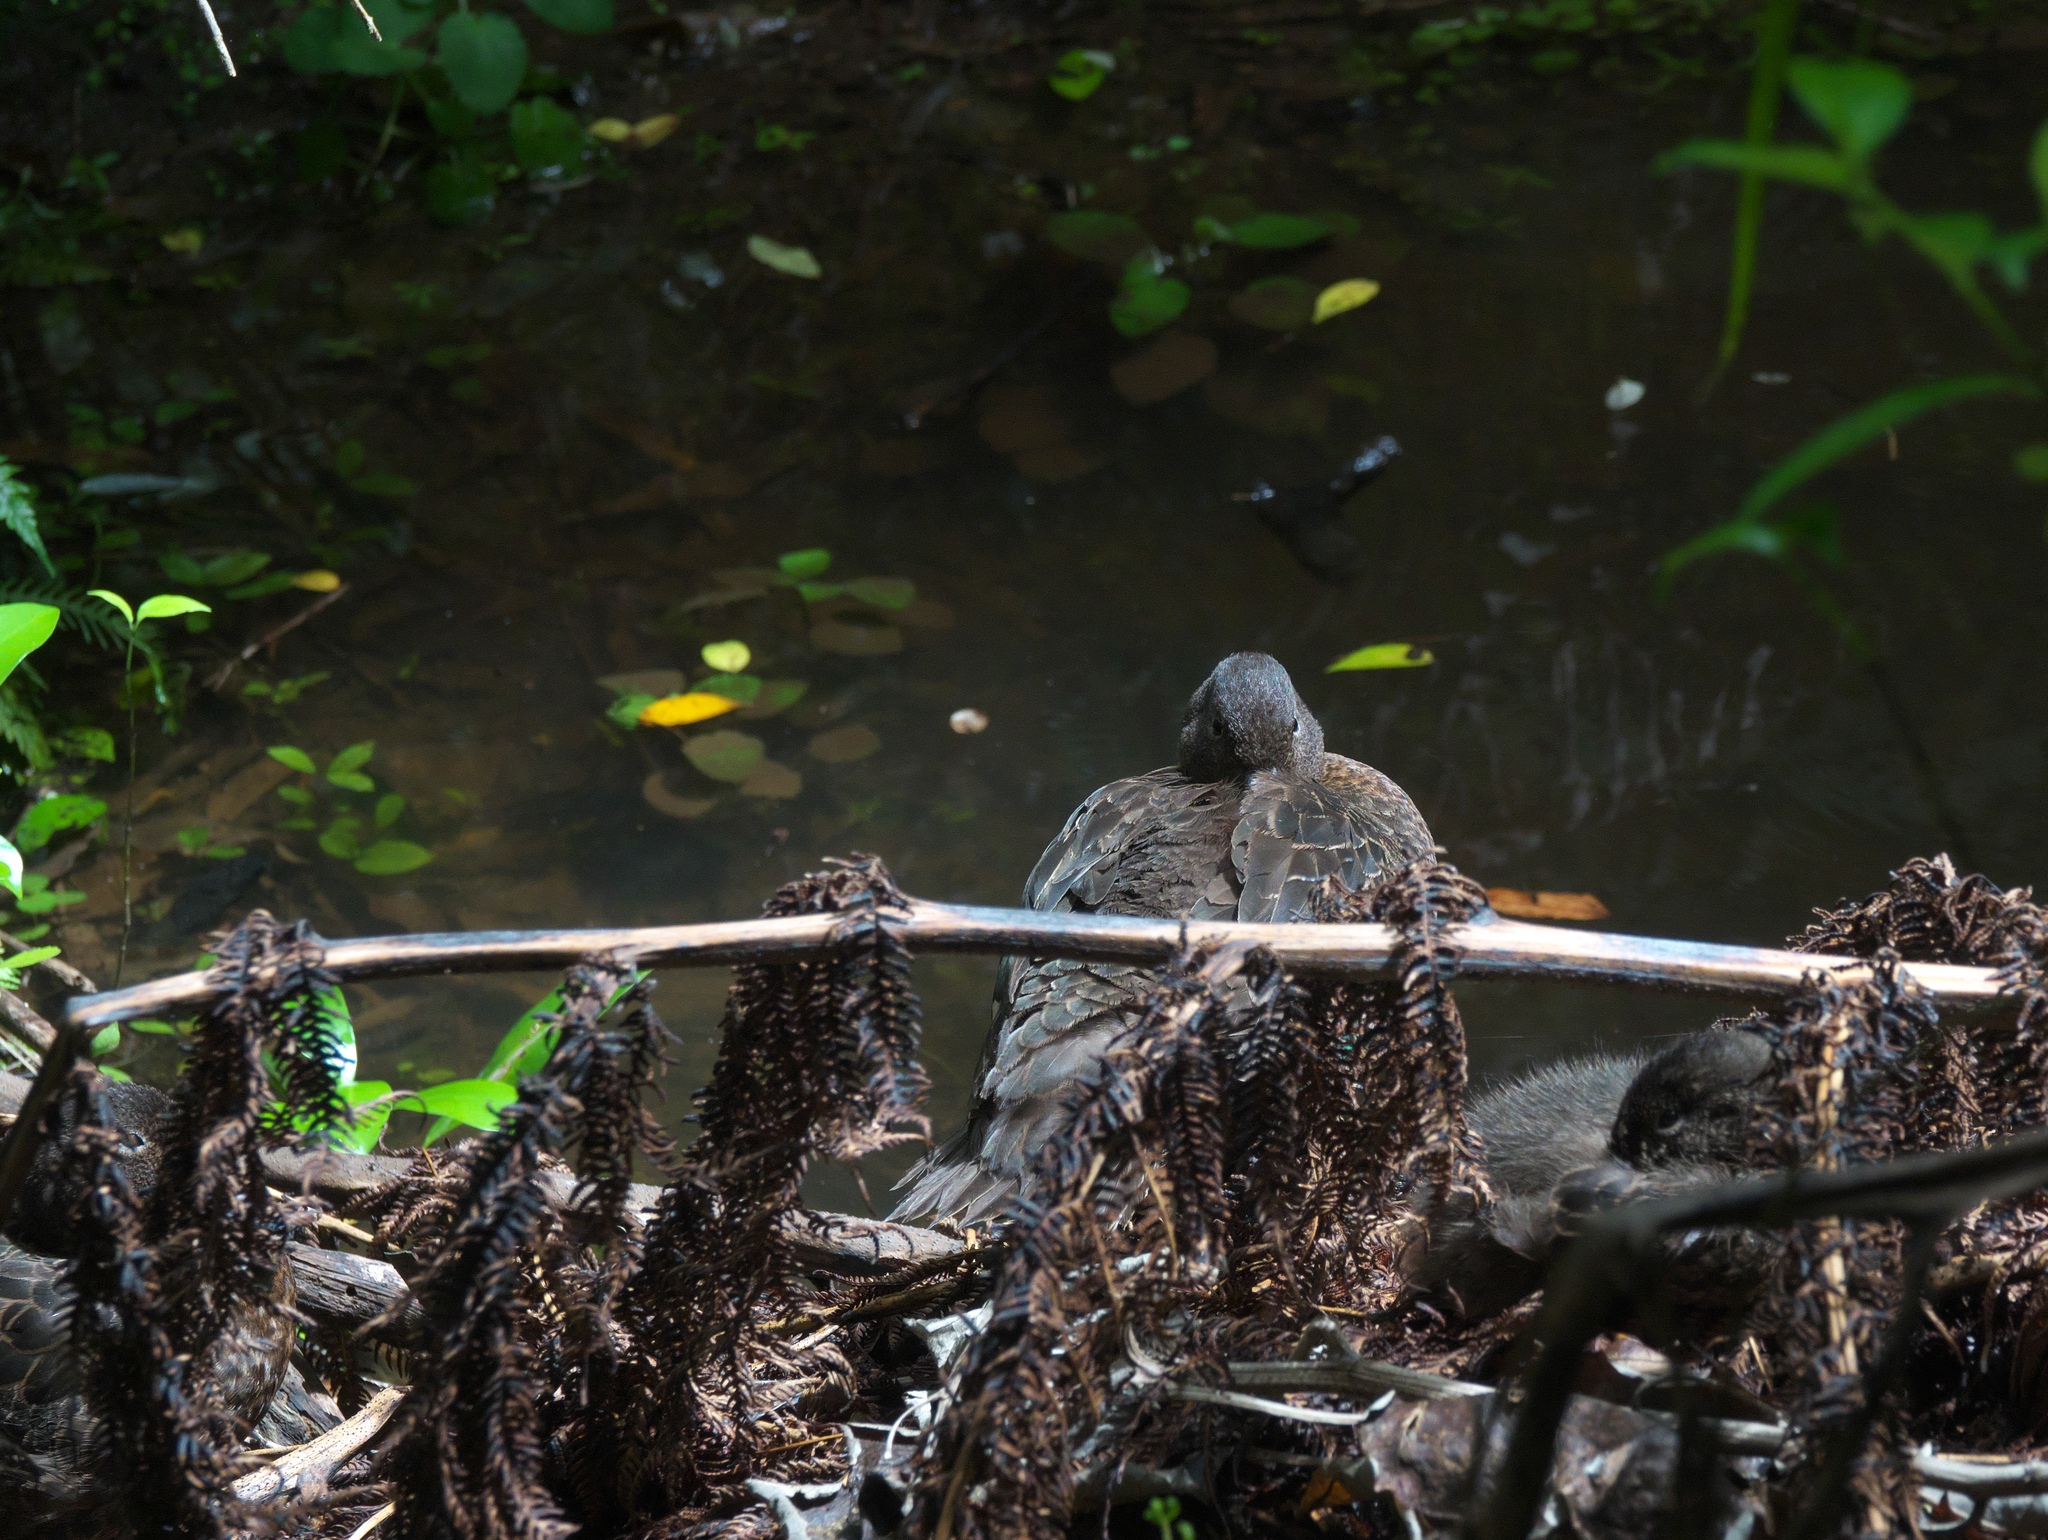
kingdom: Animalia
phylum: Chordata
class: Aves
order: Anseriformes
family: Anatidae
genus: Anas
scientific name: Anas chlorotis
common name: Brown teal
